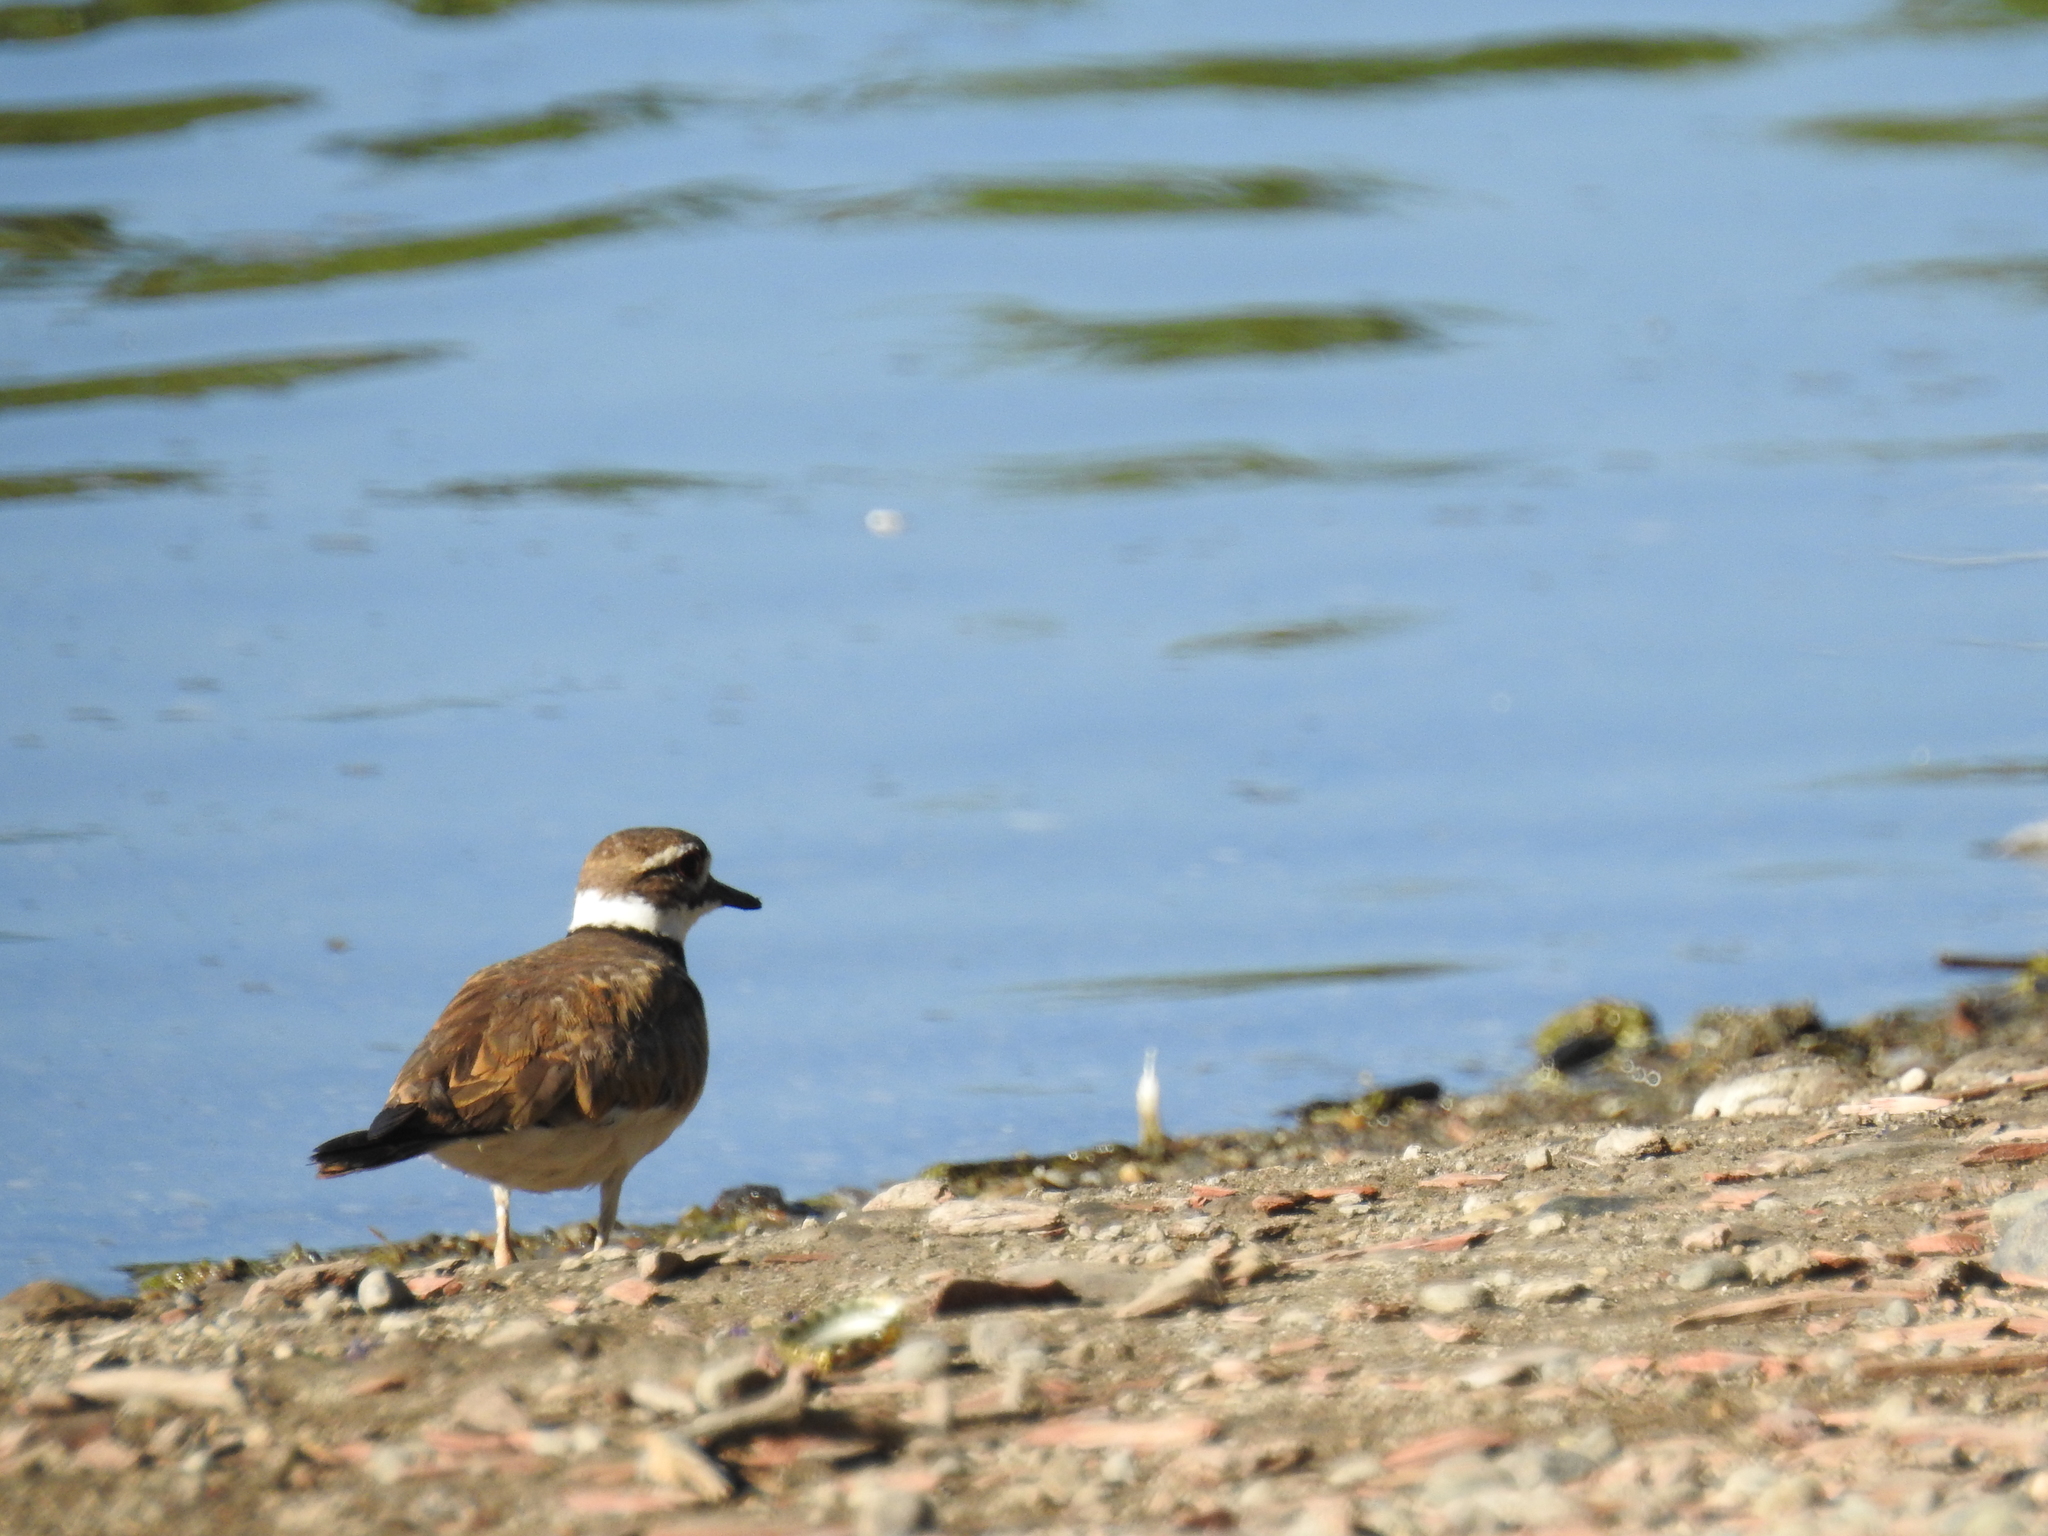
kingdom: Animalia
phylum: Chordata
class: Aves
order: Charadriiformes
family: Charadriidae
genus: Charadrius
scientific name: Charadrius vociferus
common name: Killdeer
